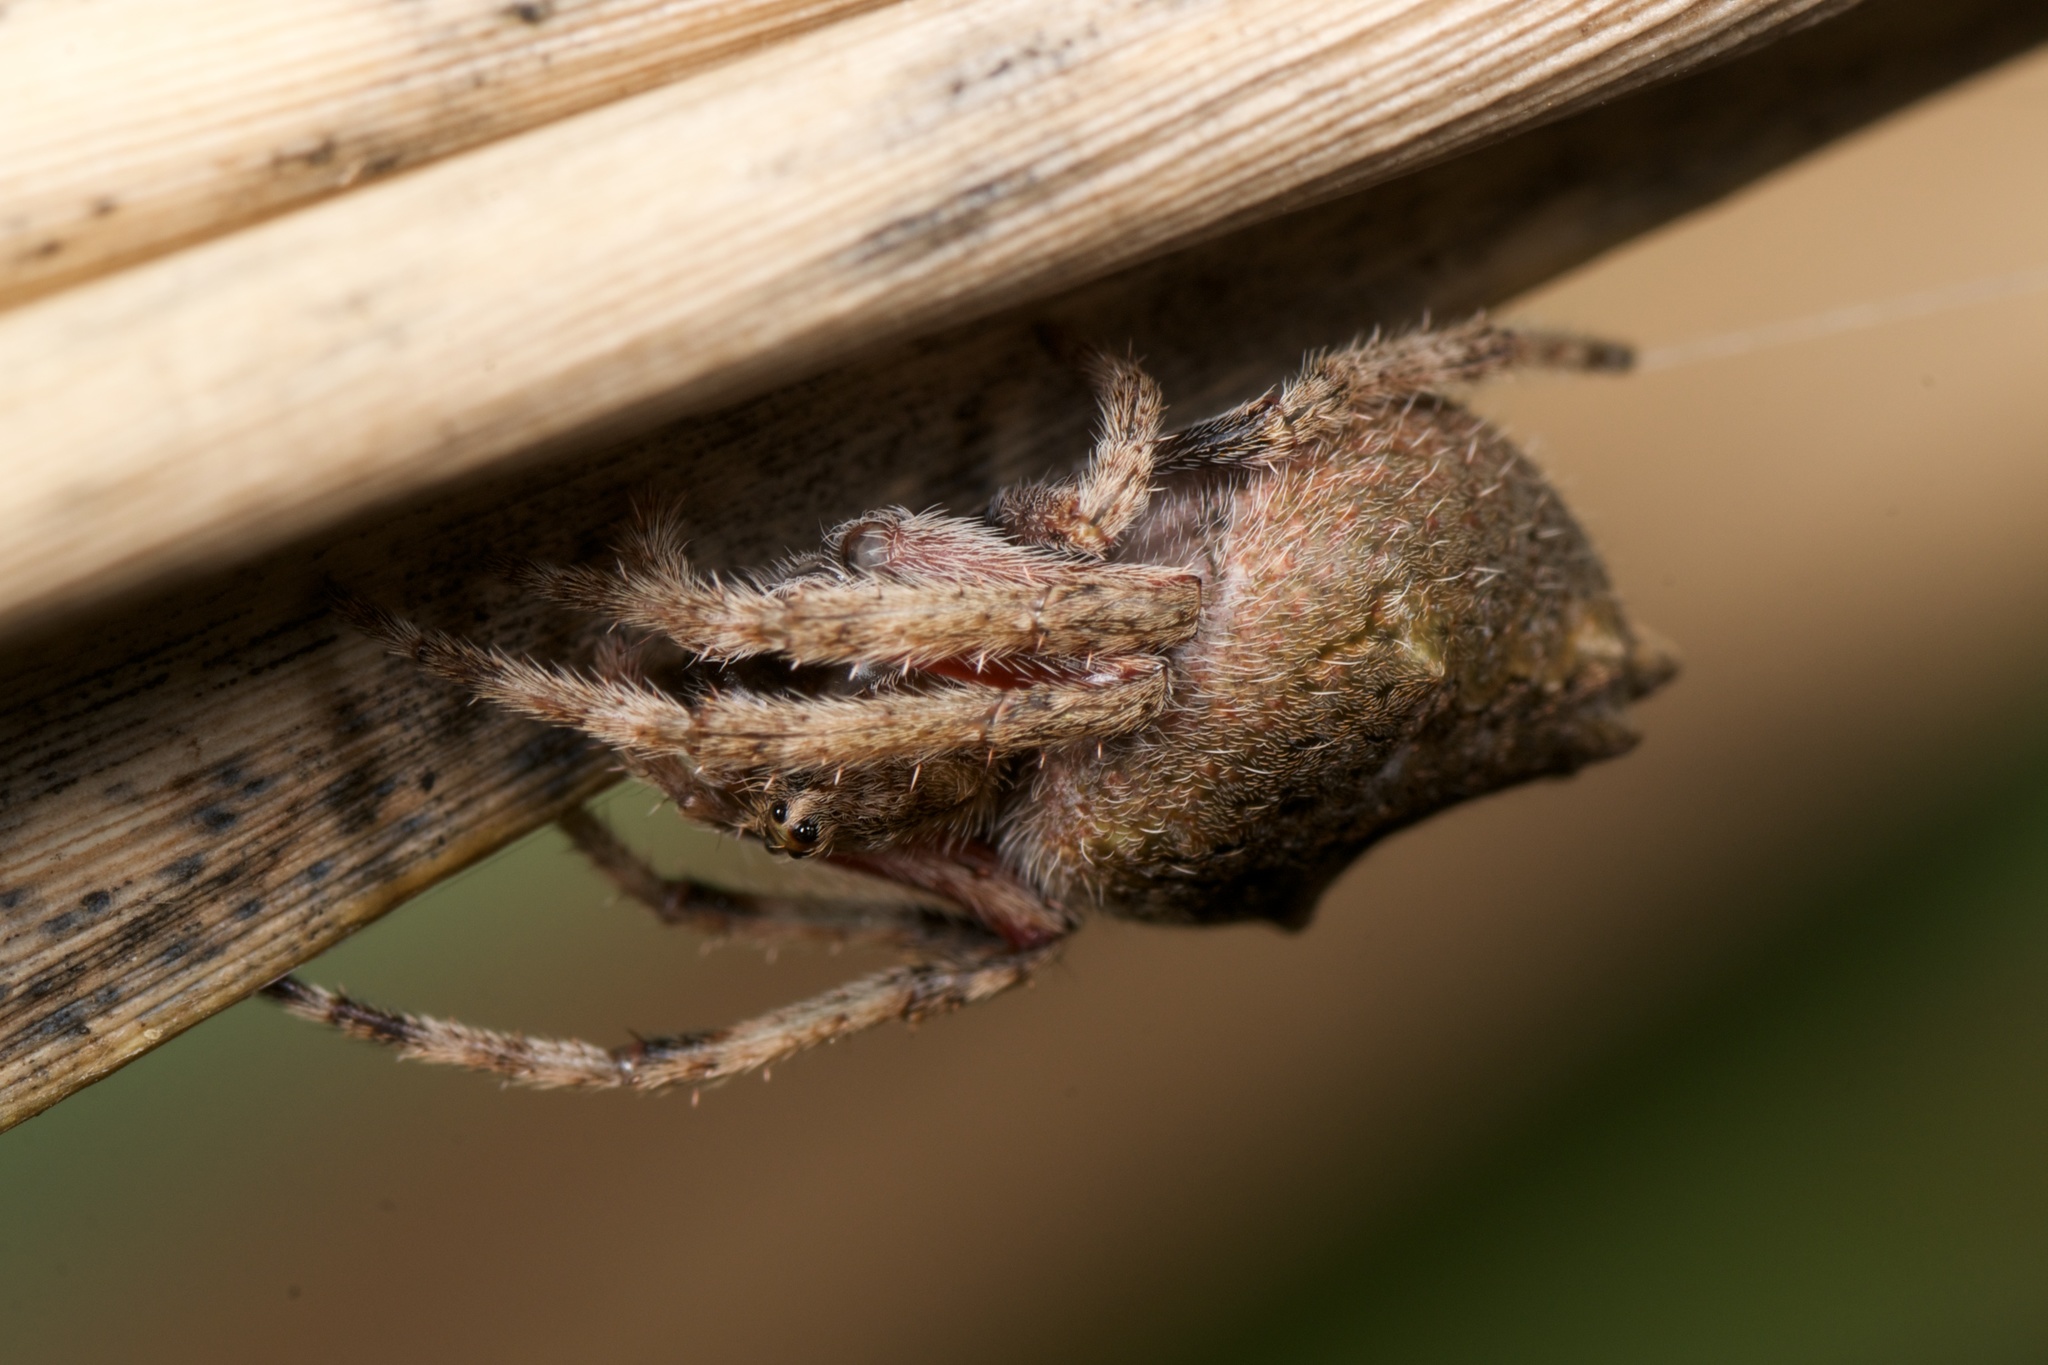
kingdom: Animalia
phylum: Arthropoda
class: Arachnida
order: Araneae
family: Araneidae
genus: Eriophora
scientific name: Eriophora pustulosa
